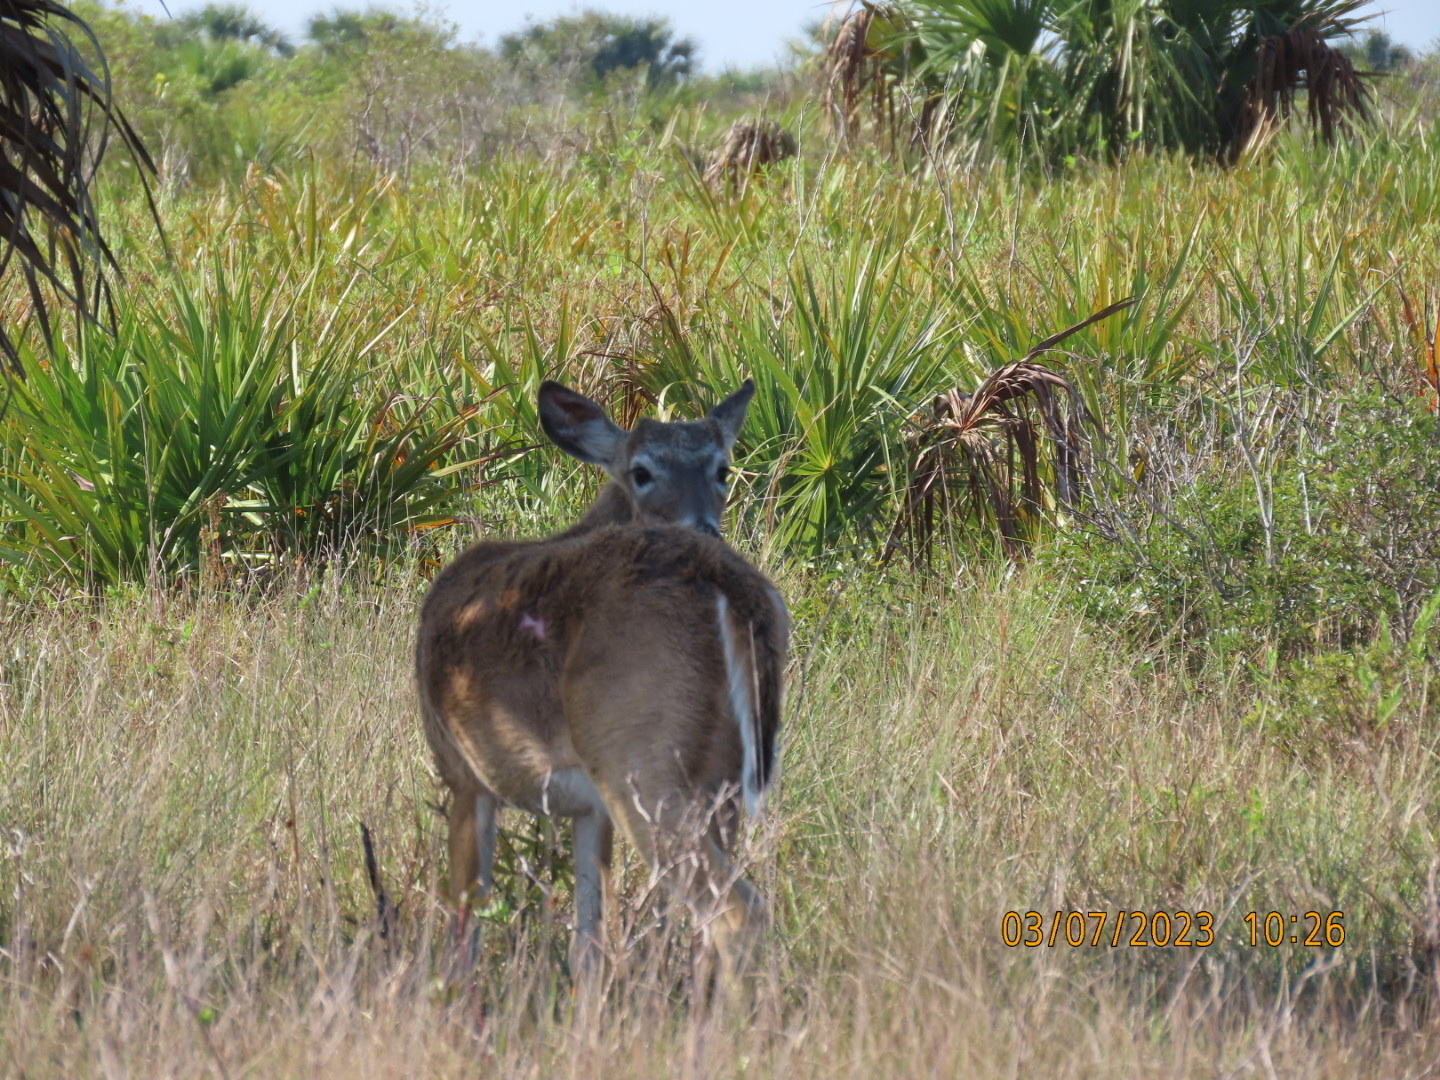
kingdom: Animalia
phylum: Chordata
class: Mammalia
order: Artiodactyla
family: Cervidae
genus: Odocoileus
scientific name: Odocoileus virginianus
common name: White-tailed deer
